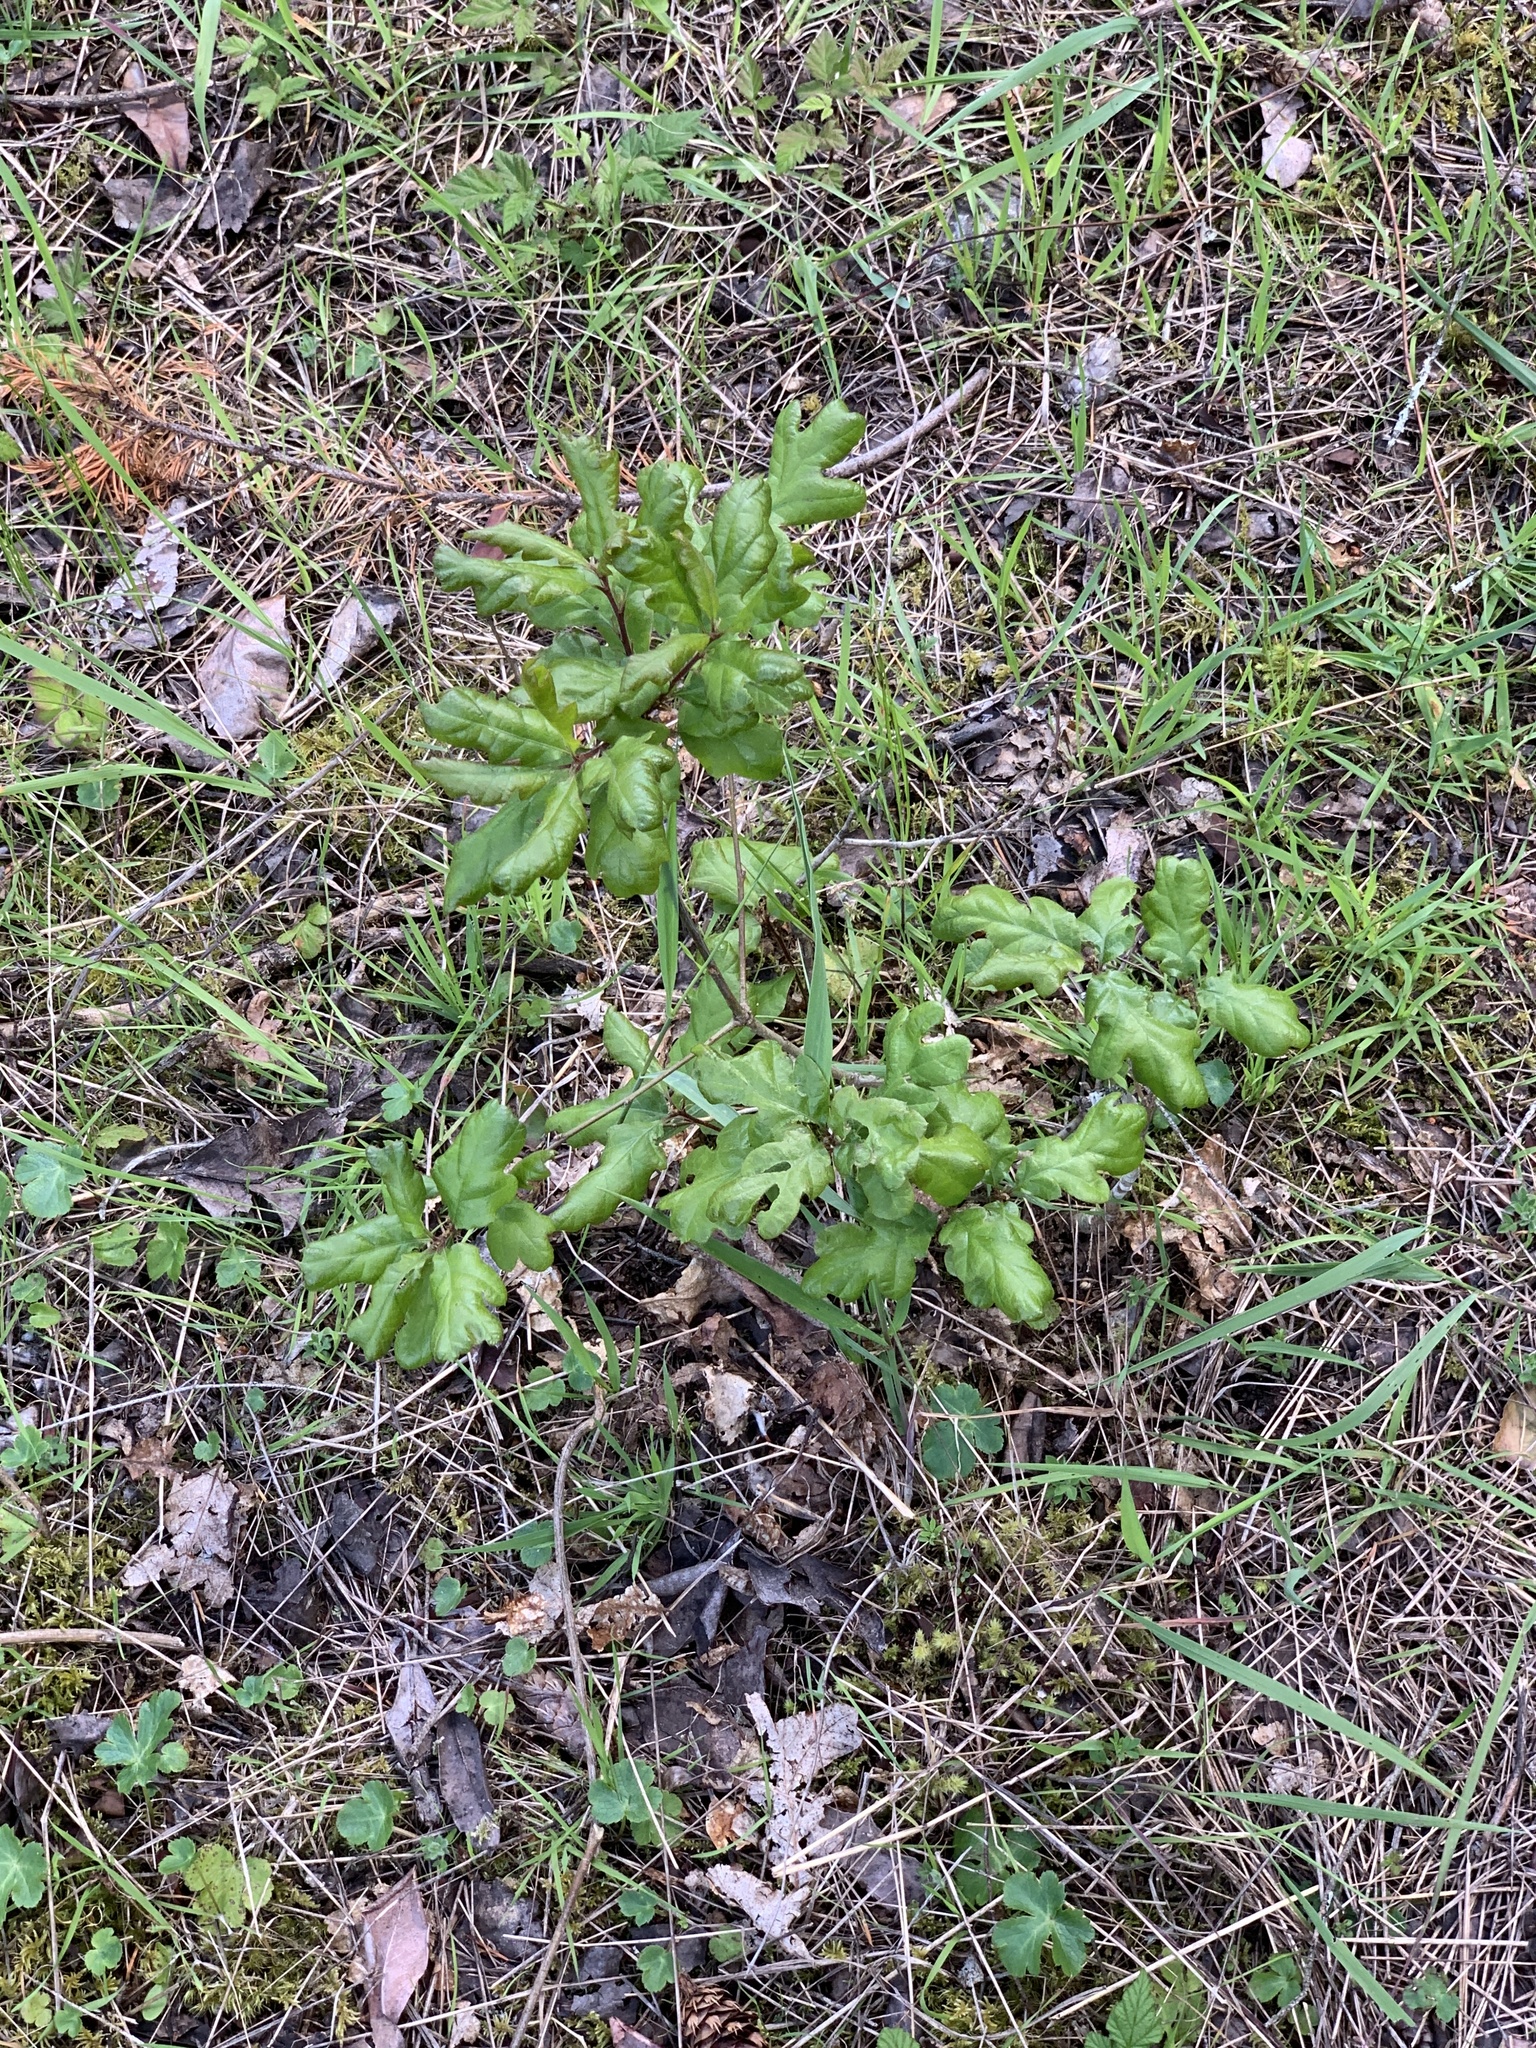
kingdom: Plantae
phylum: Tracheophyta
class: Magnoliopsida
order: Fagales
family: Fagaceae
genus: Quercus
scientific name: Quercus garryana
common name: Garry oak
